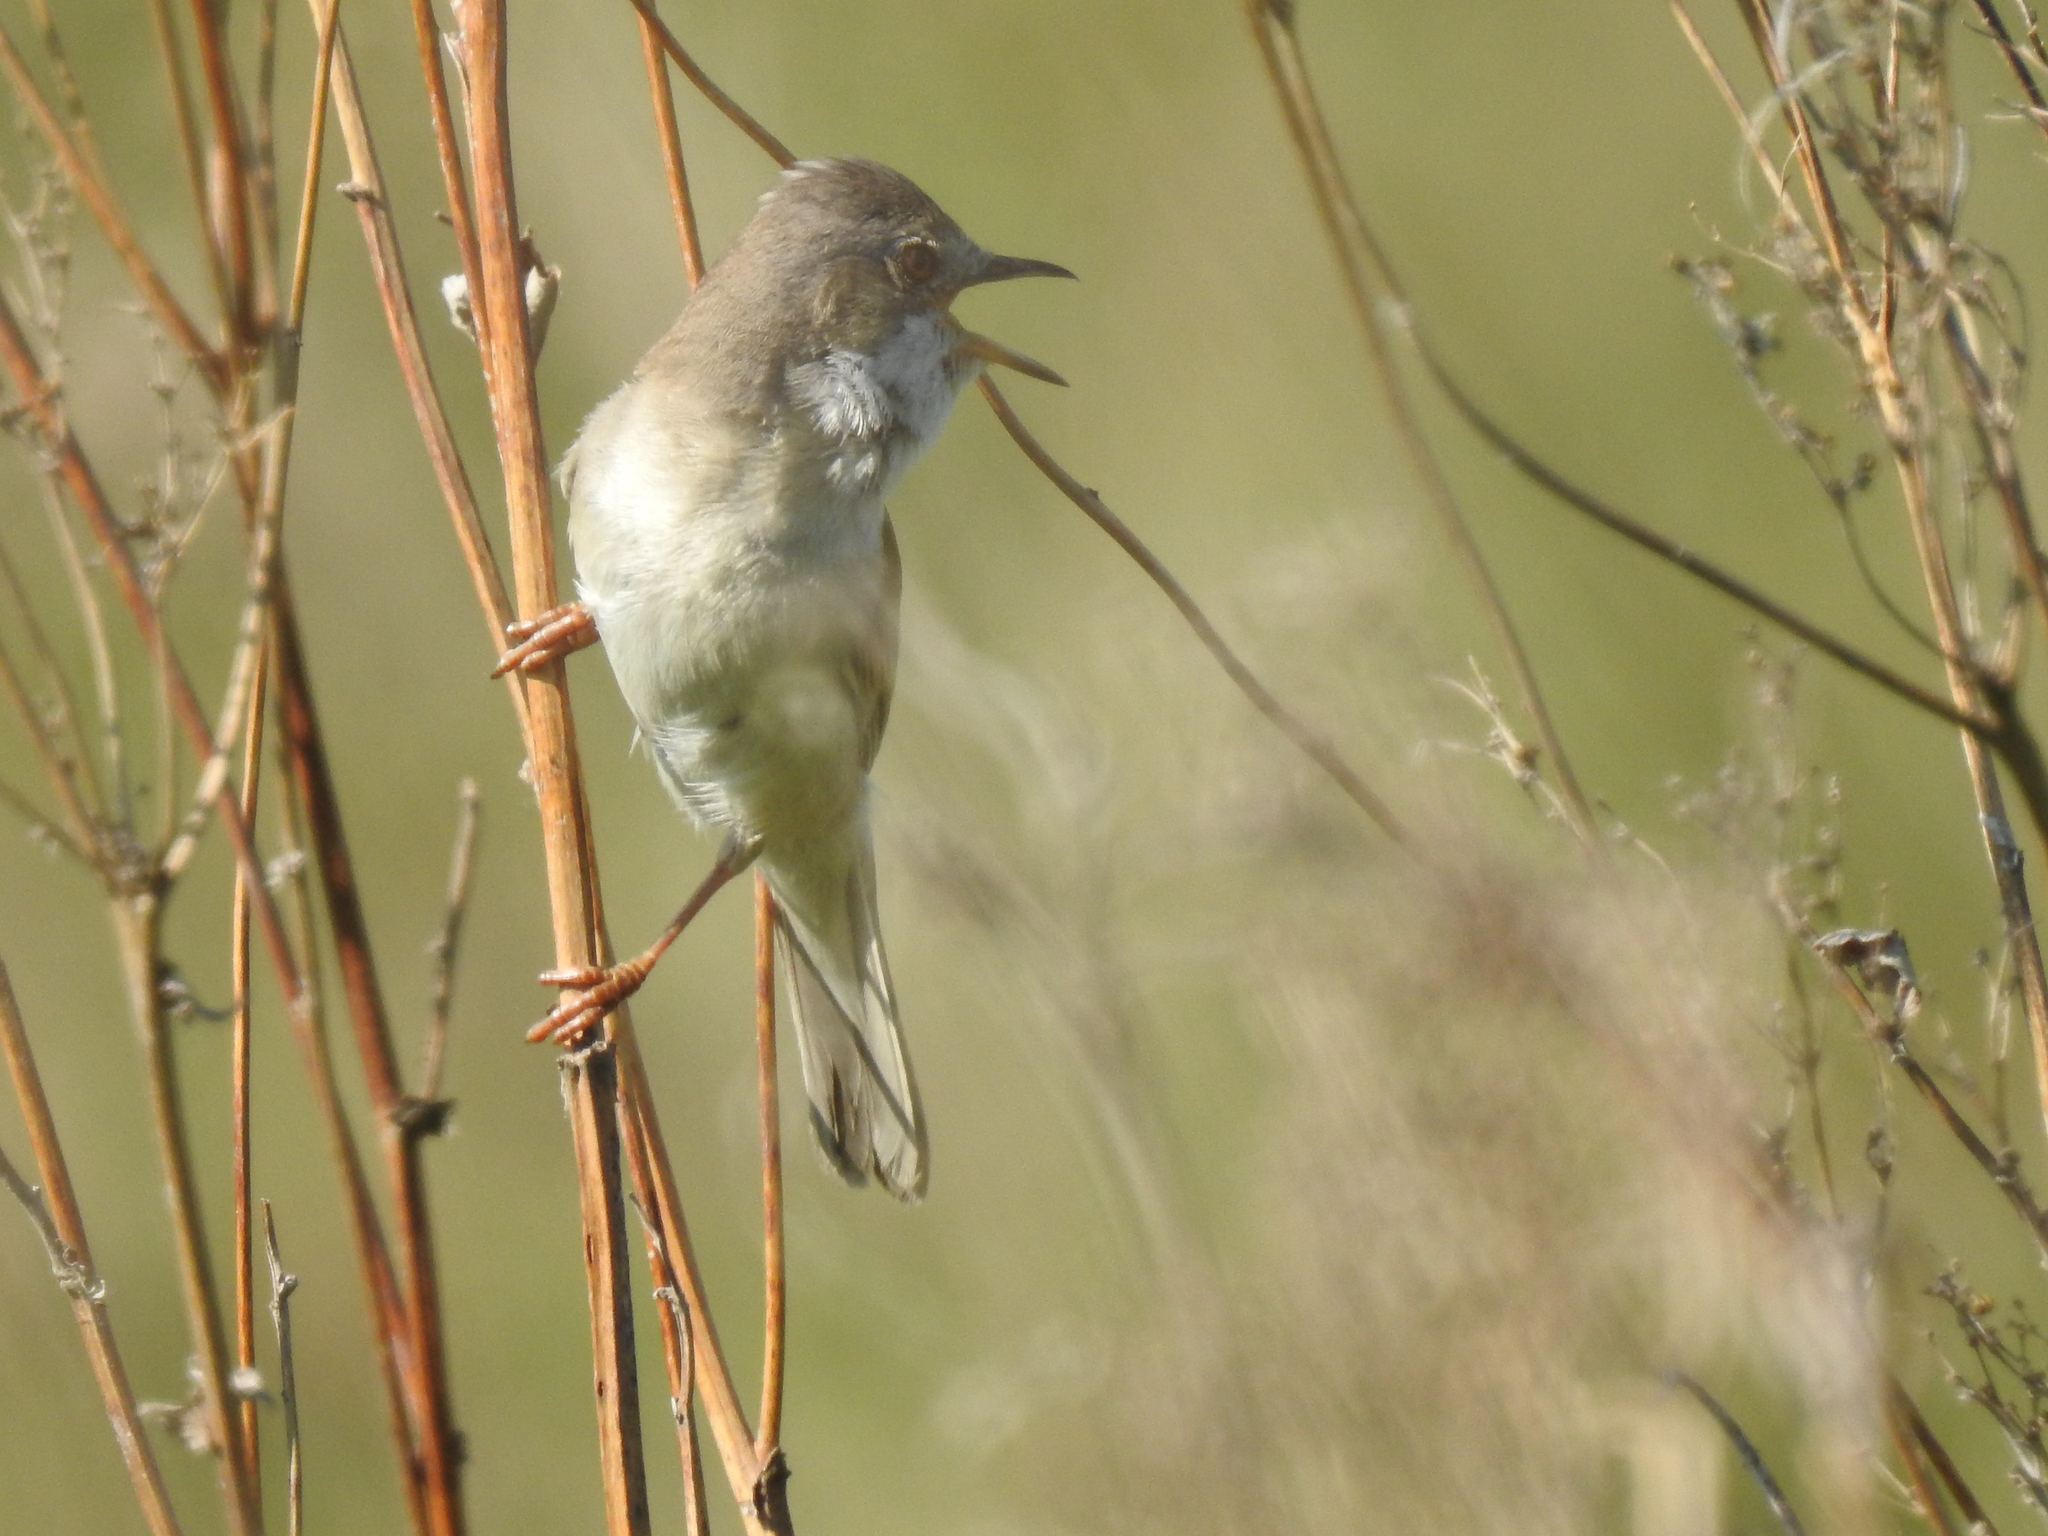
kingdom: Animalia
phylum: Chordata
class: Aves
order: Passeriformes
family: Sylviidae
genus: Sylvia
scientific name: Sylvia communis
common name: Common whitethroat
